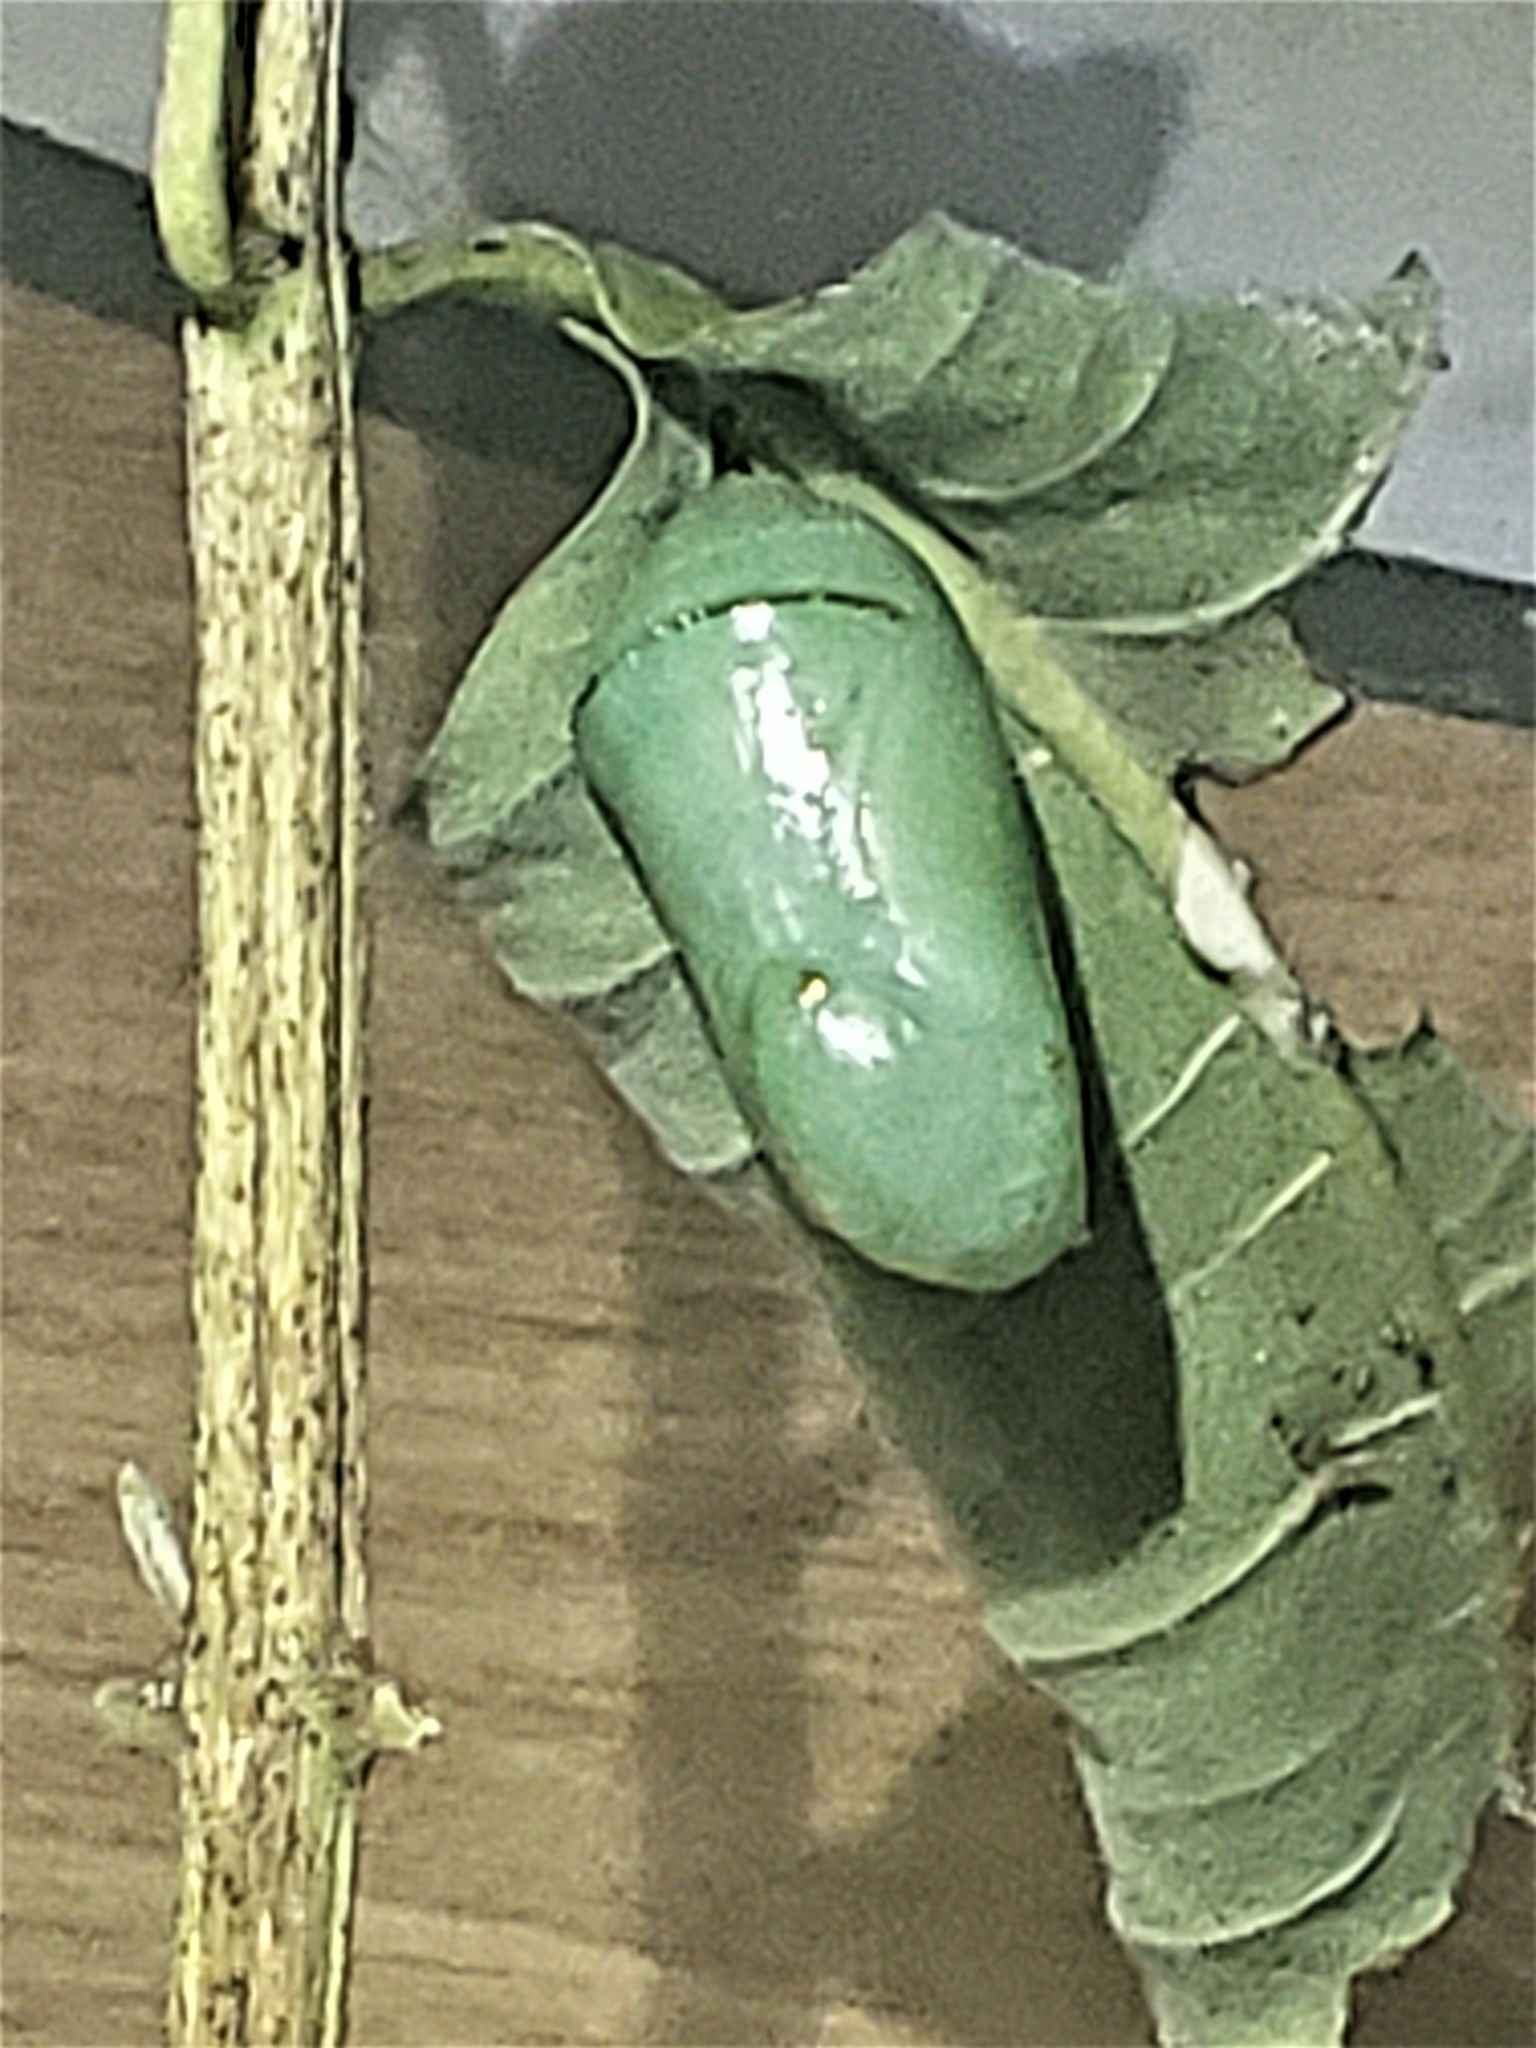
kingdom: Animalia
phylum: Arthropoda
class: Insecta
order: Lepidoptera
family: Nymphalidae
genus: Danaus
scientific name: Danaus plexippus
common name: Monarch
